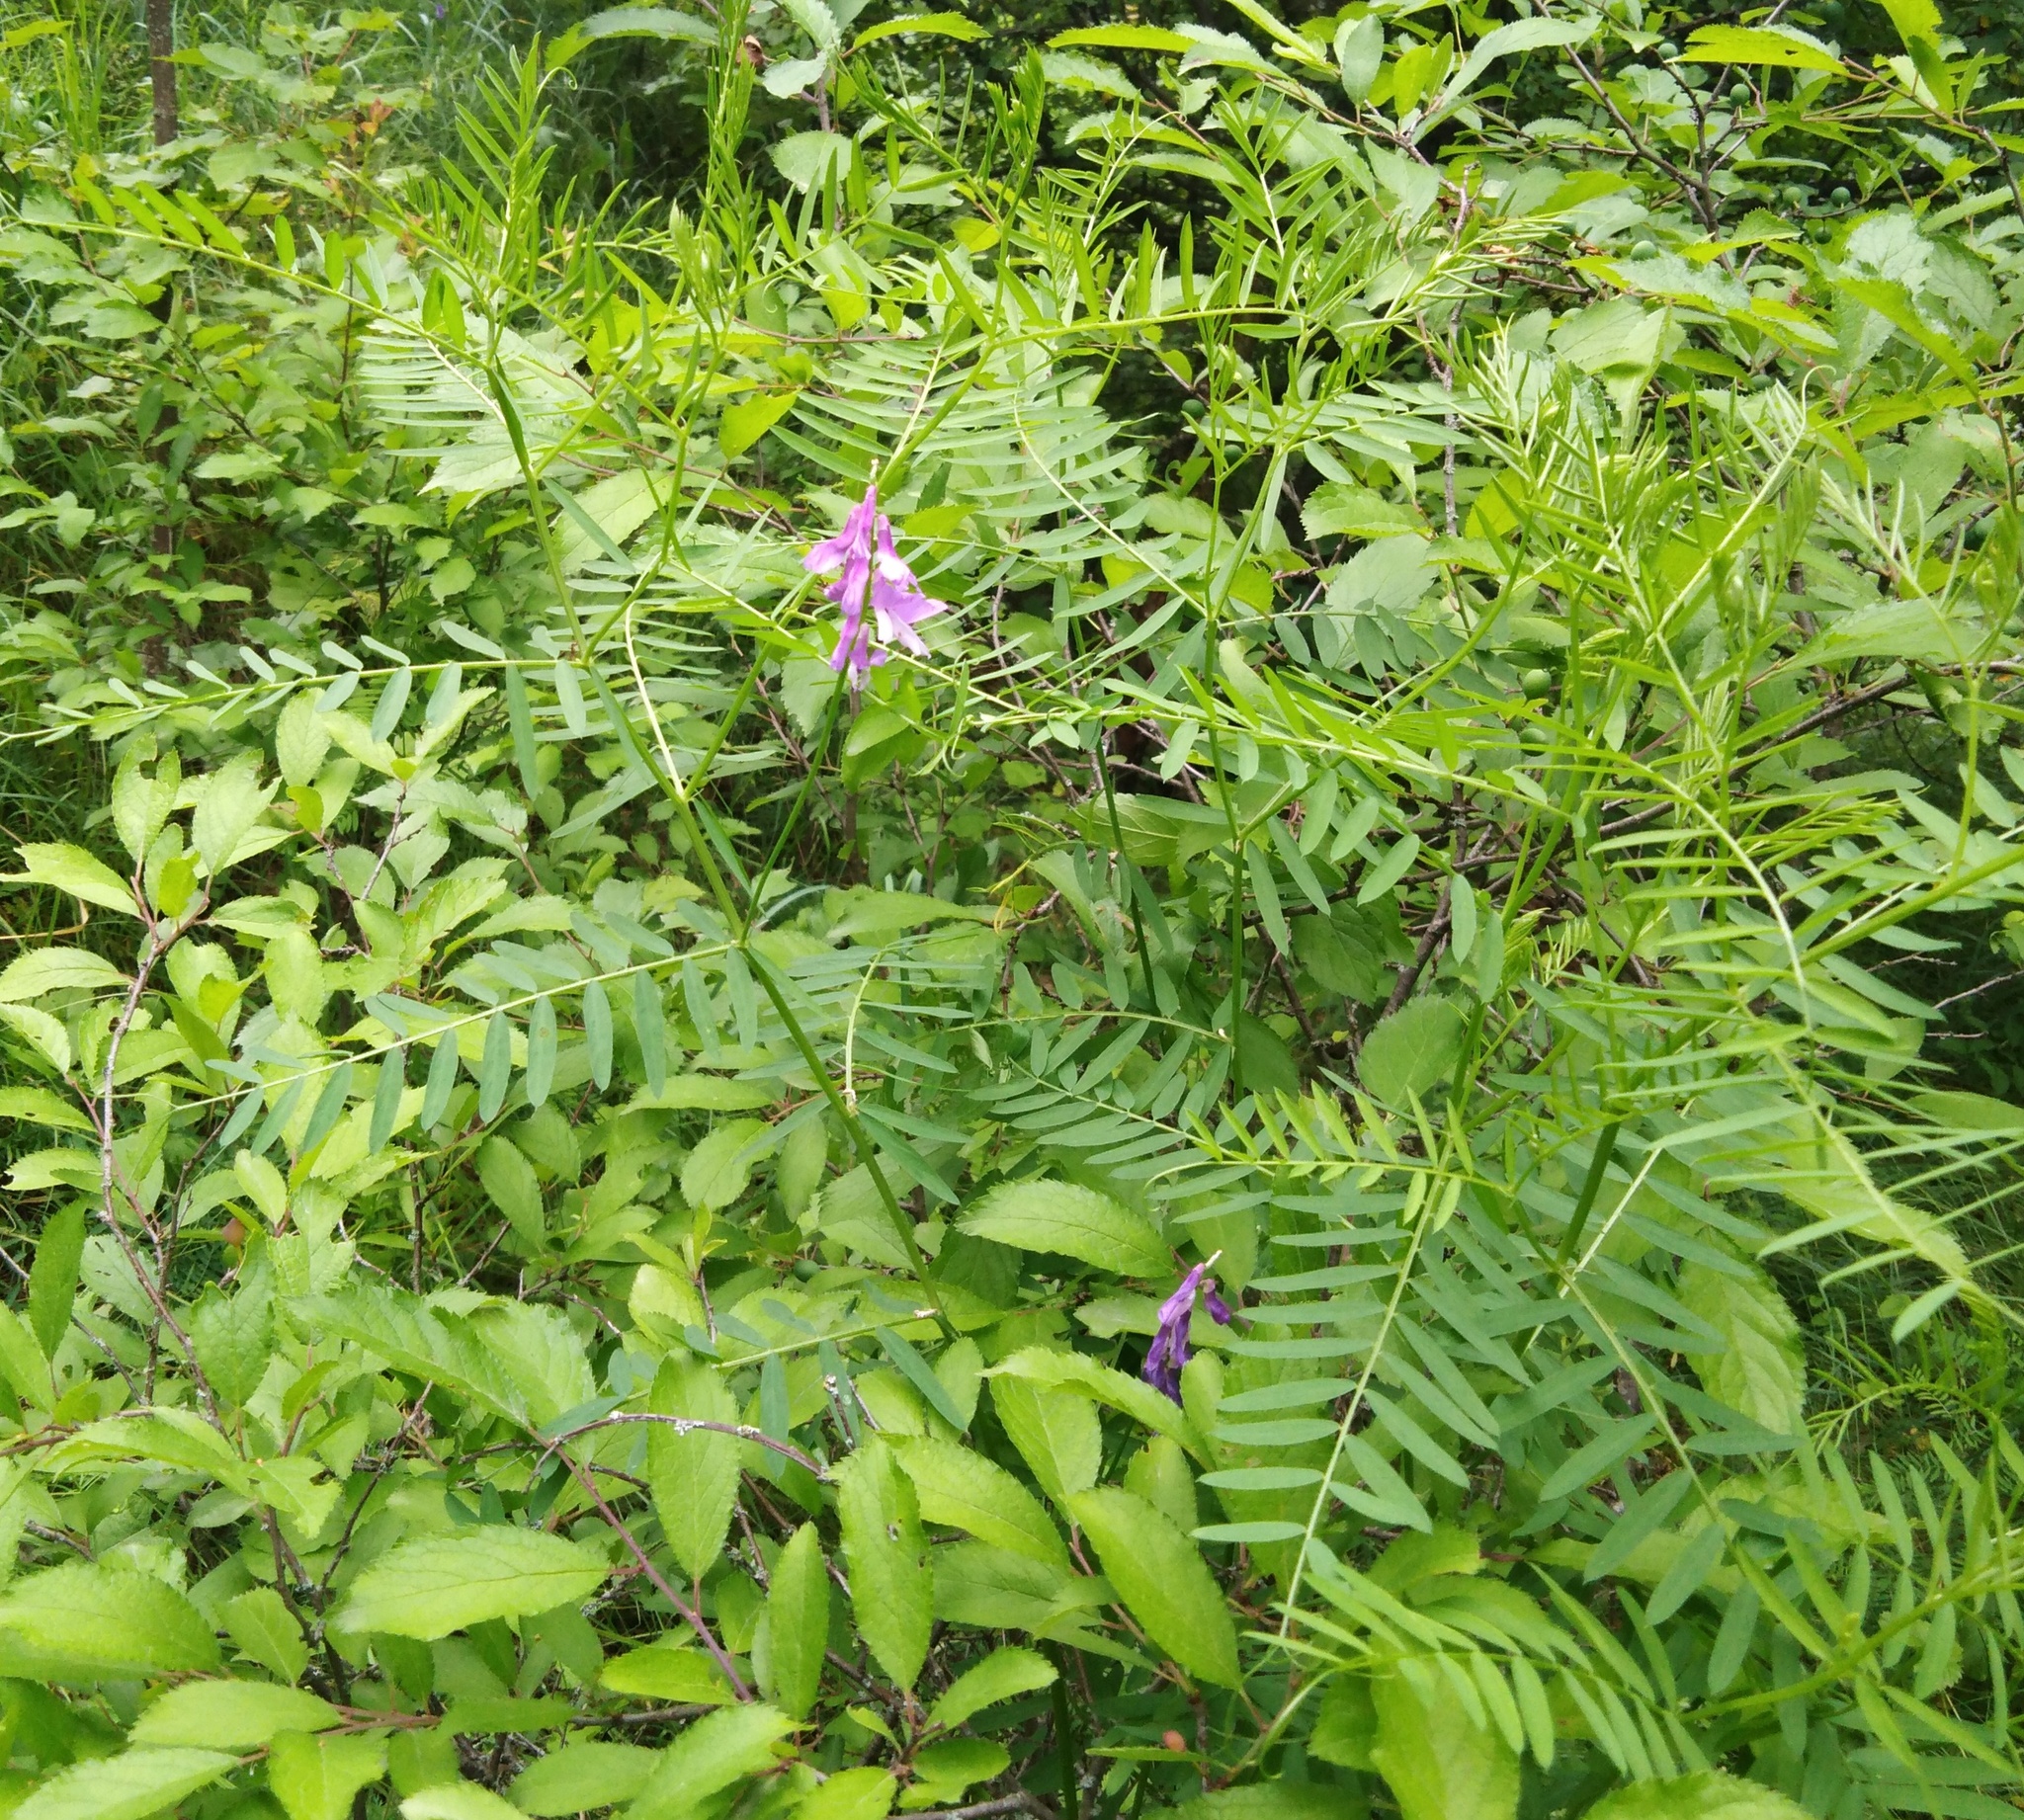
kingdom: Plantae
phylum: Tracheophyta
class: Magnoliopsida
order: Fabales
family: Fabaceae
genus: Vicia
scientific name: Vicia cracca
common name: Bird vetch
